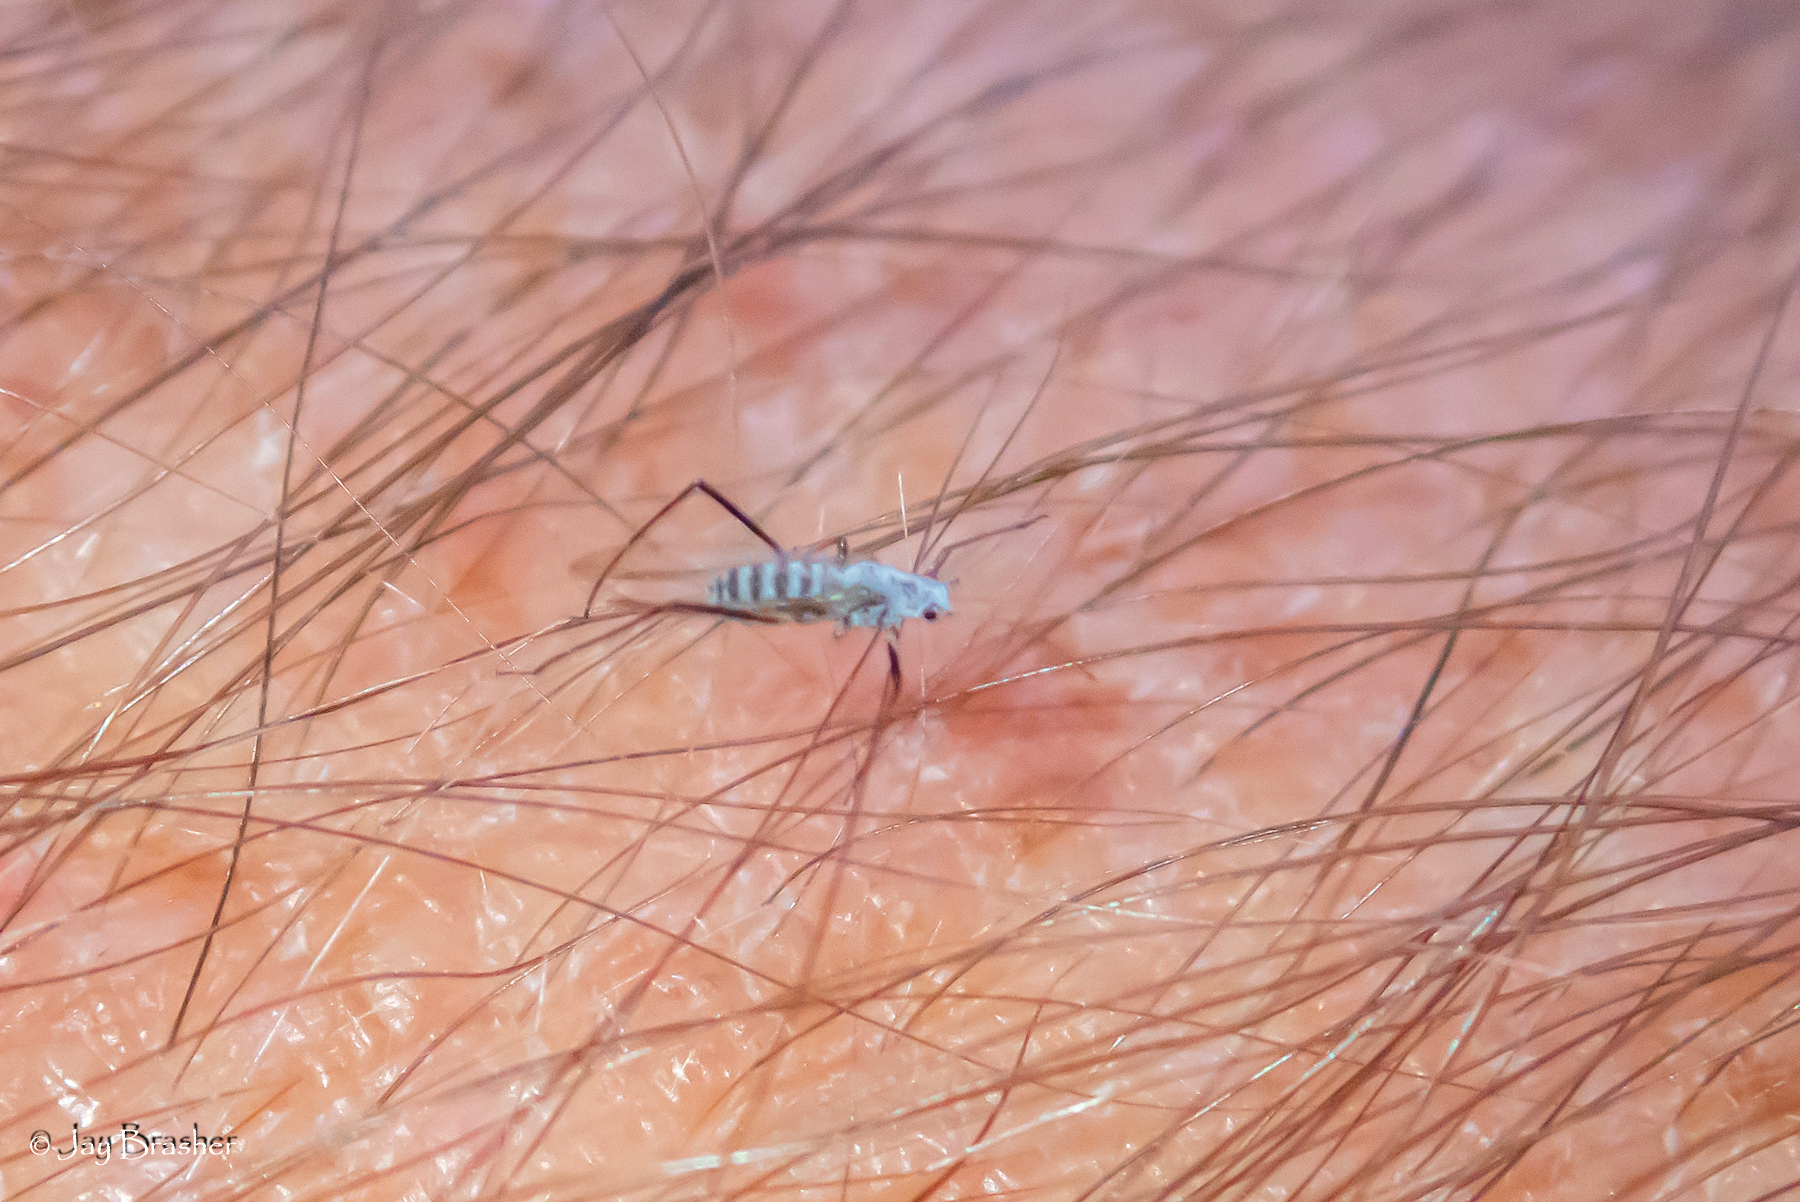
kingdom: Animalia
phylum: Arthropoda
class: Insecta
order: Hemiptera
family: Aphididae
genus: Eulachnus
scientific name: Eulachnus rileyi
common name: Active gray pine needle aphid
